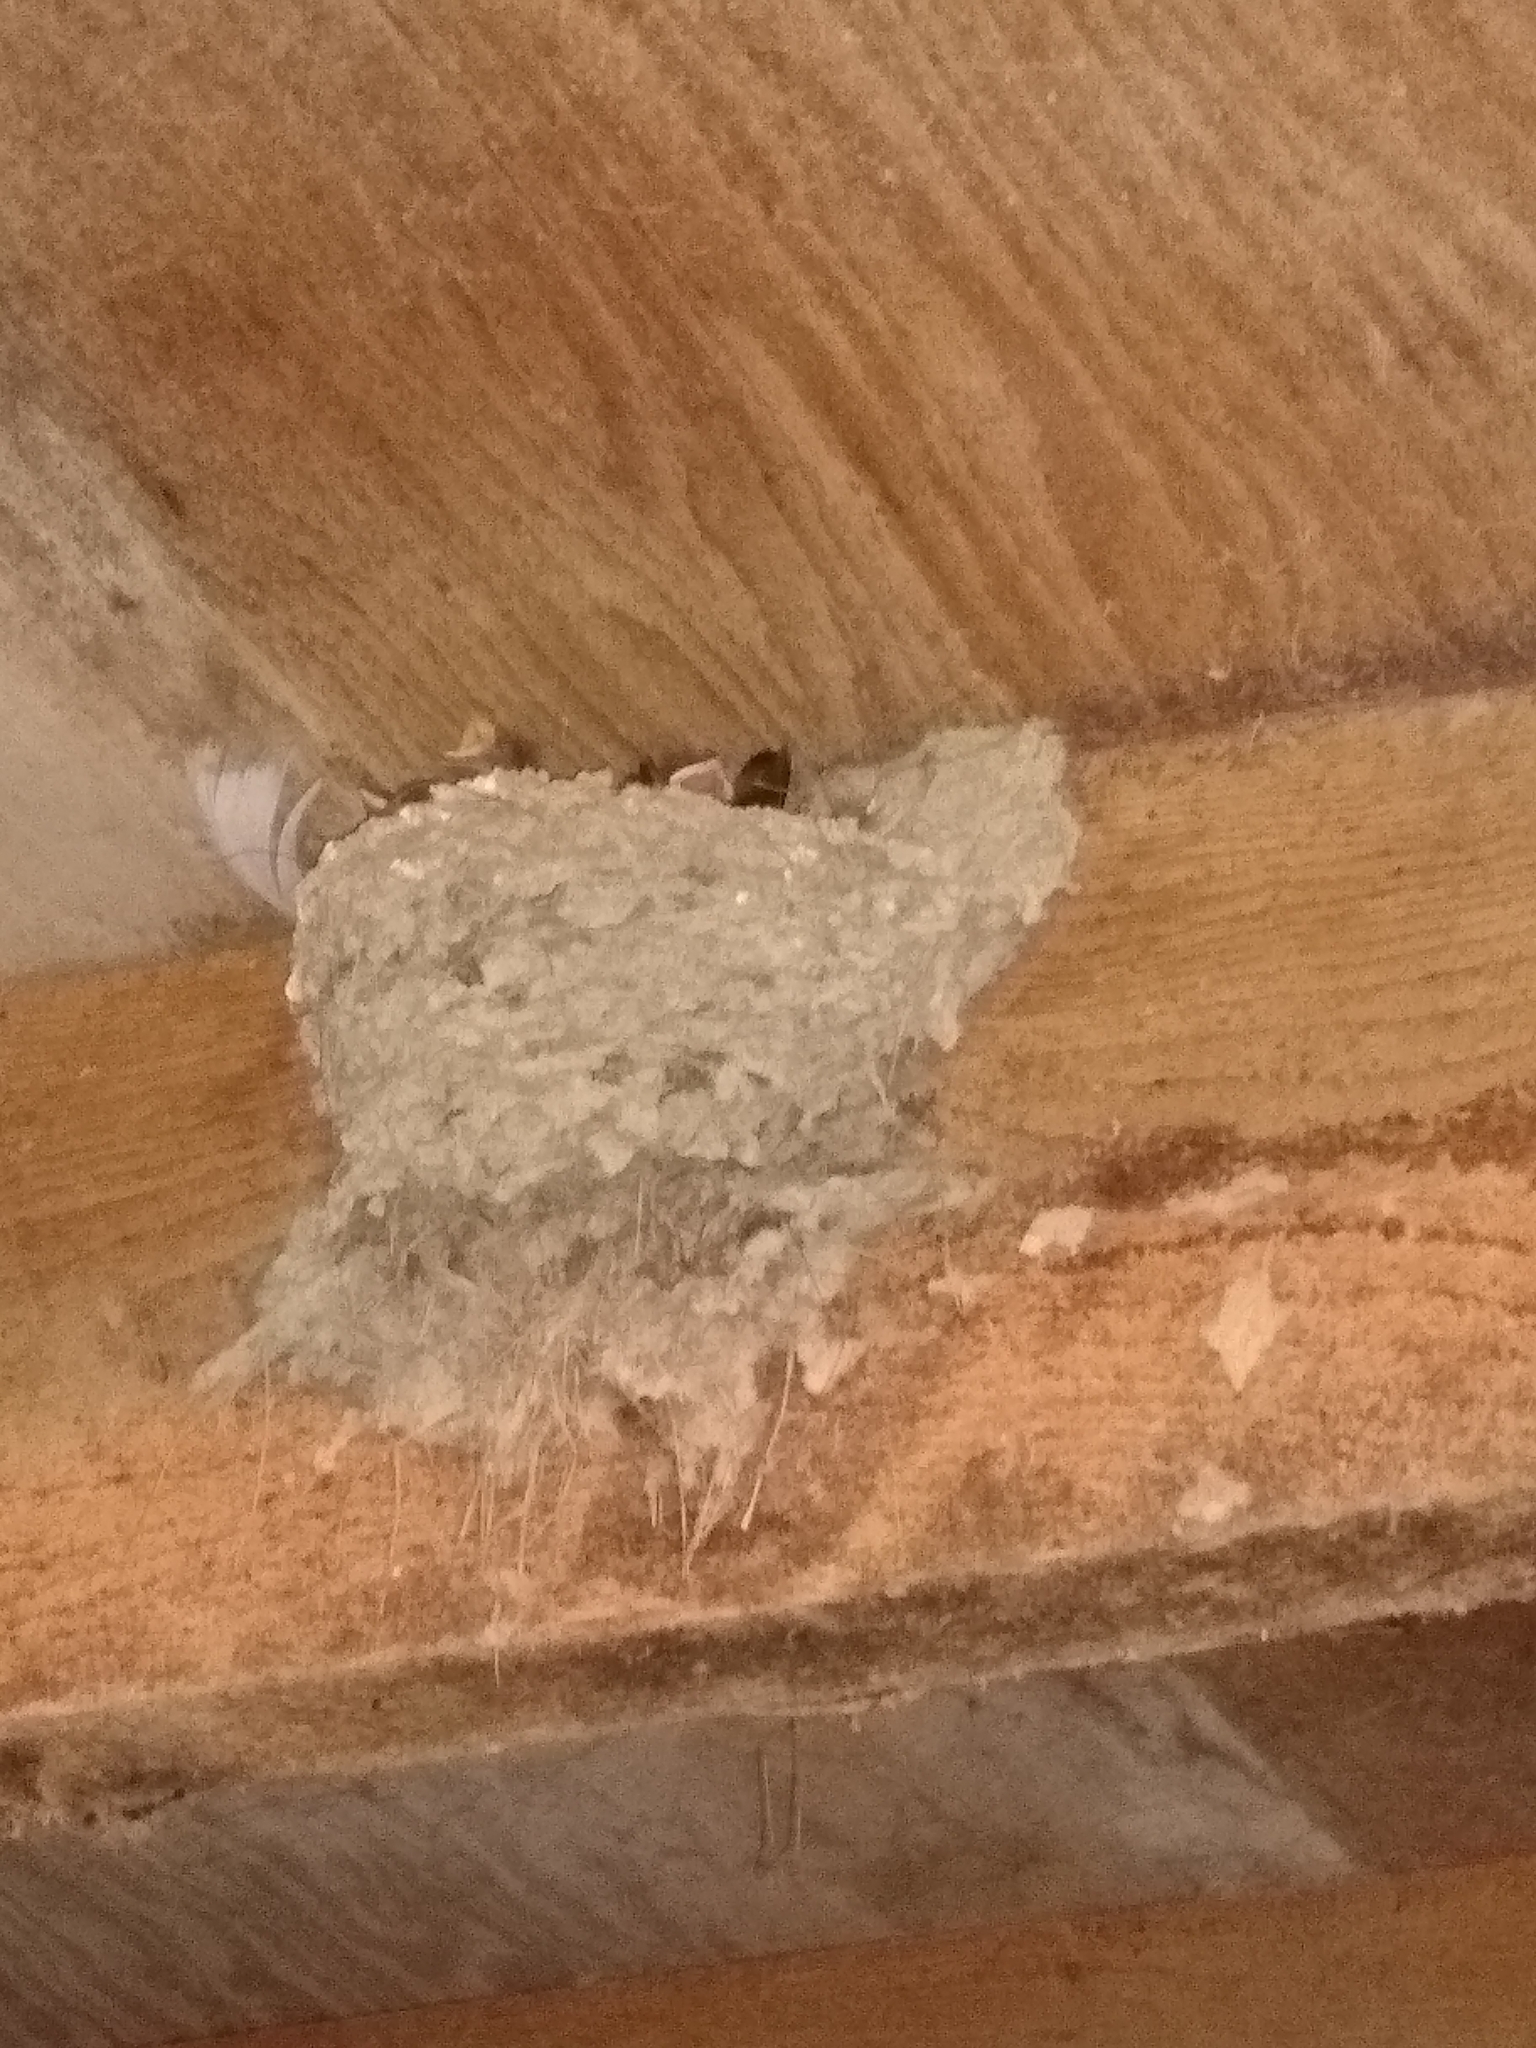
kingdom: Animalia
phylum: Chordata
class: Aves
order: Passeriformes
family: Hirundinidae
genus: Hirundo
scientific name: Hirundo rustica
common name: Barn swallow
